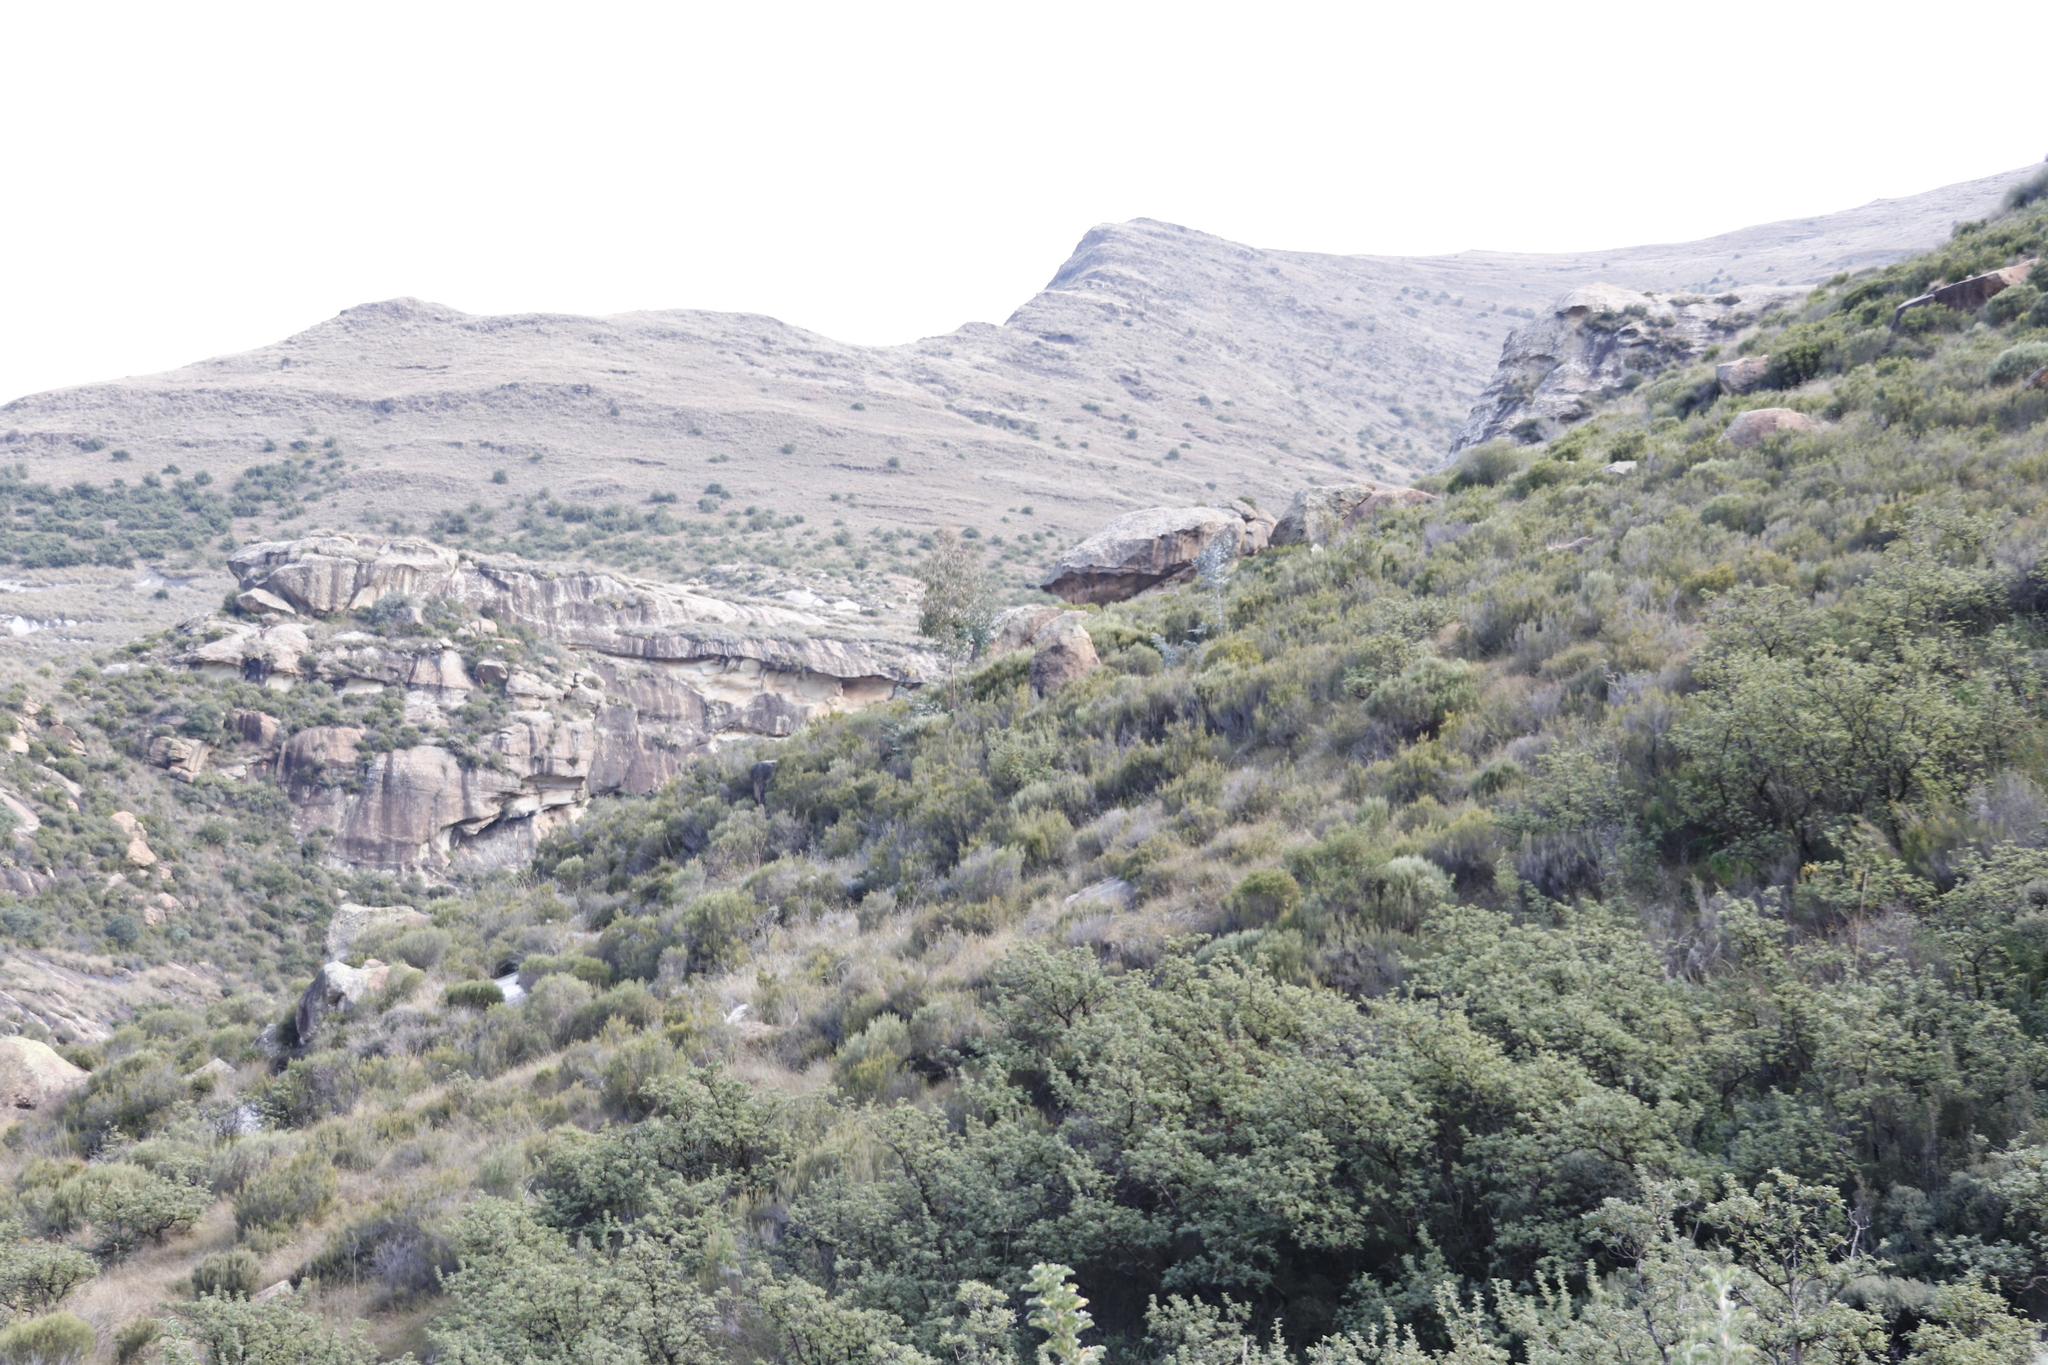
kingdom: Plantae
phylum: Tracheophyta
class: Magnoliopsida
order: Rosales
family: Rosaceae
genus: Leucosidea
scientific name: Leucosidea sericea
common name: Oldwood
